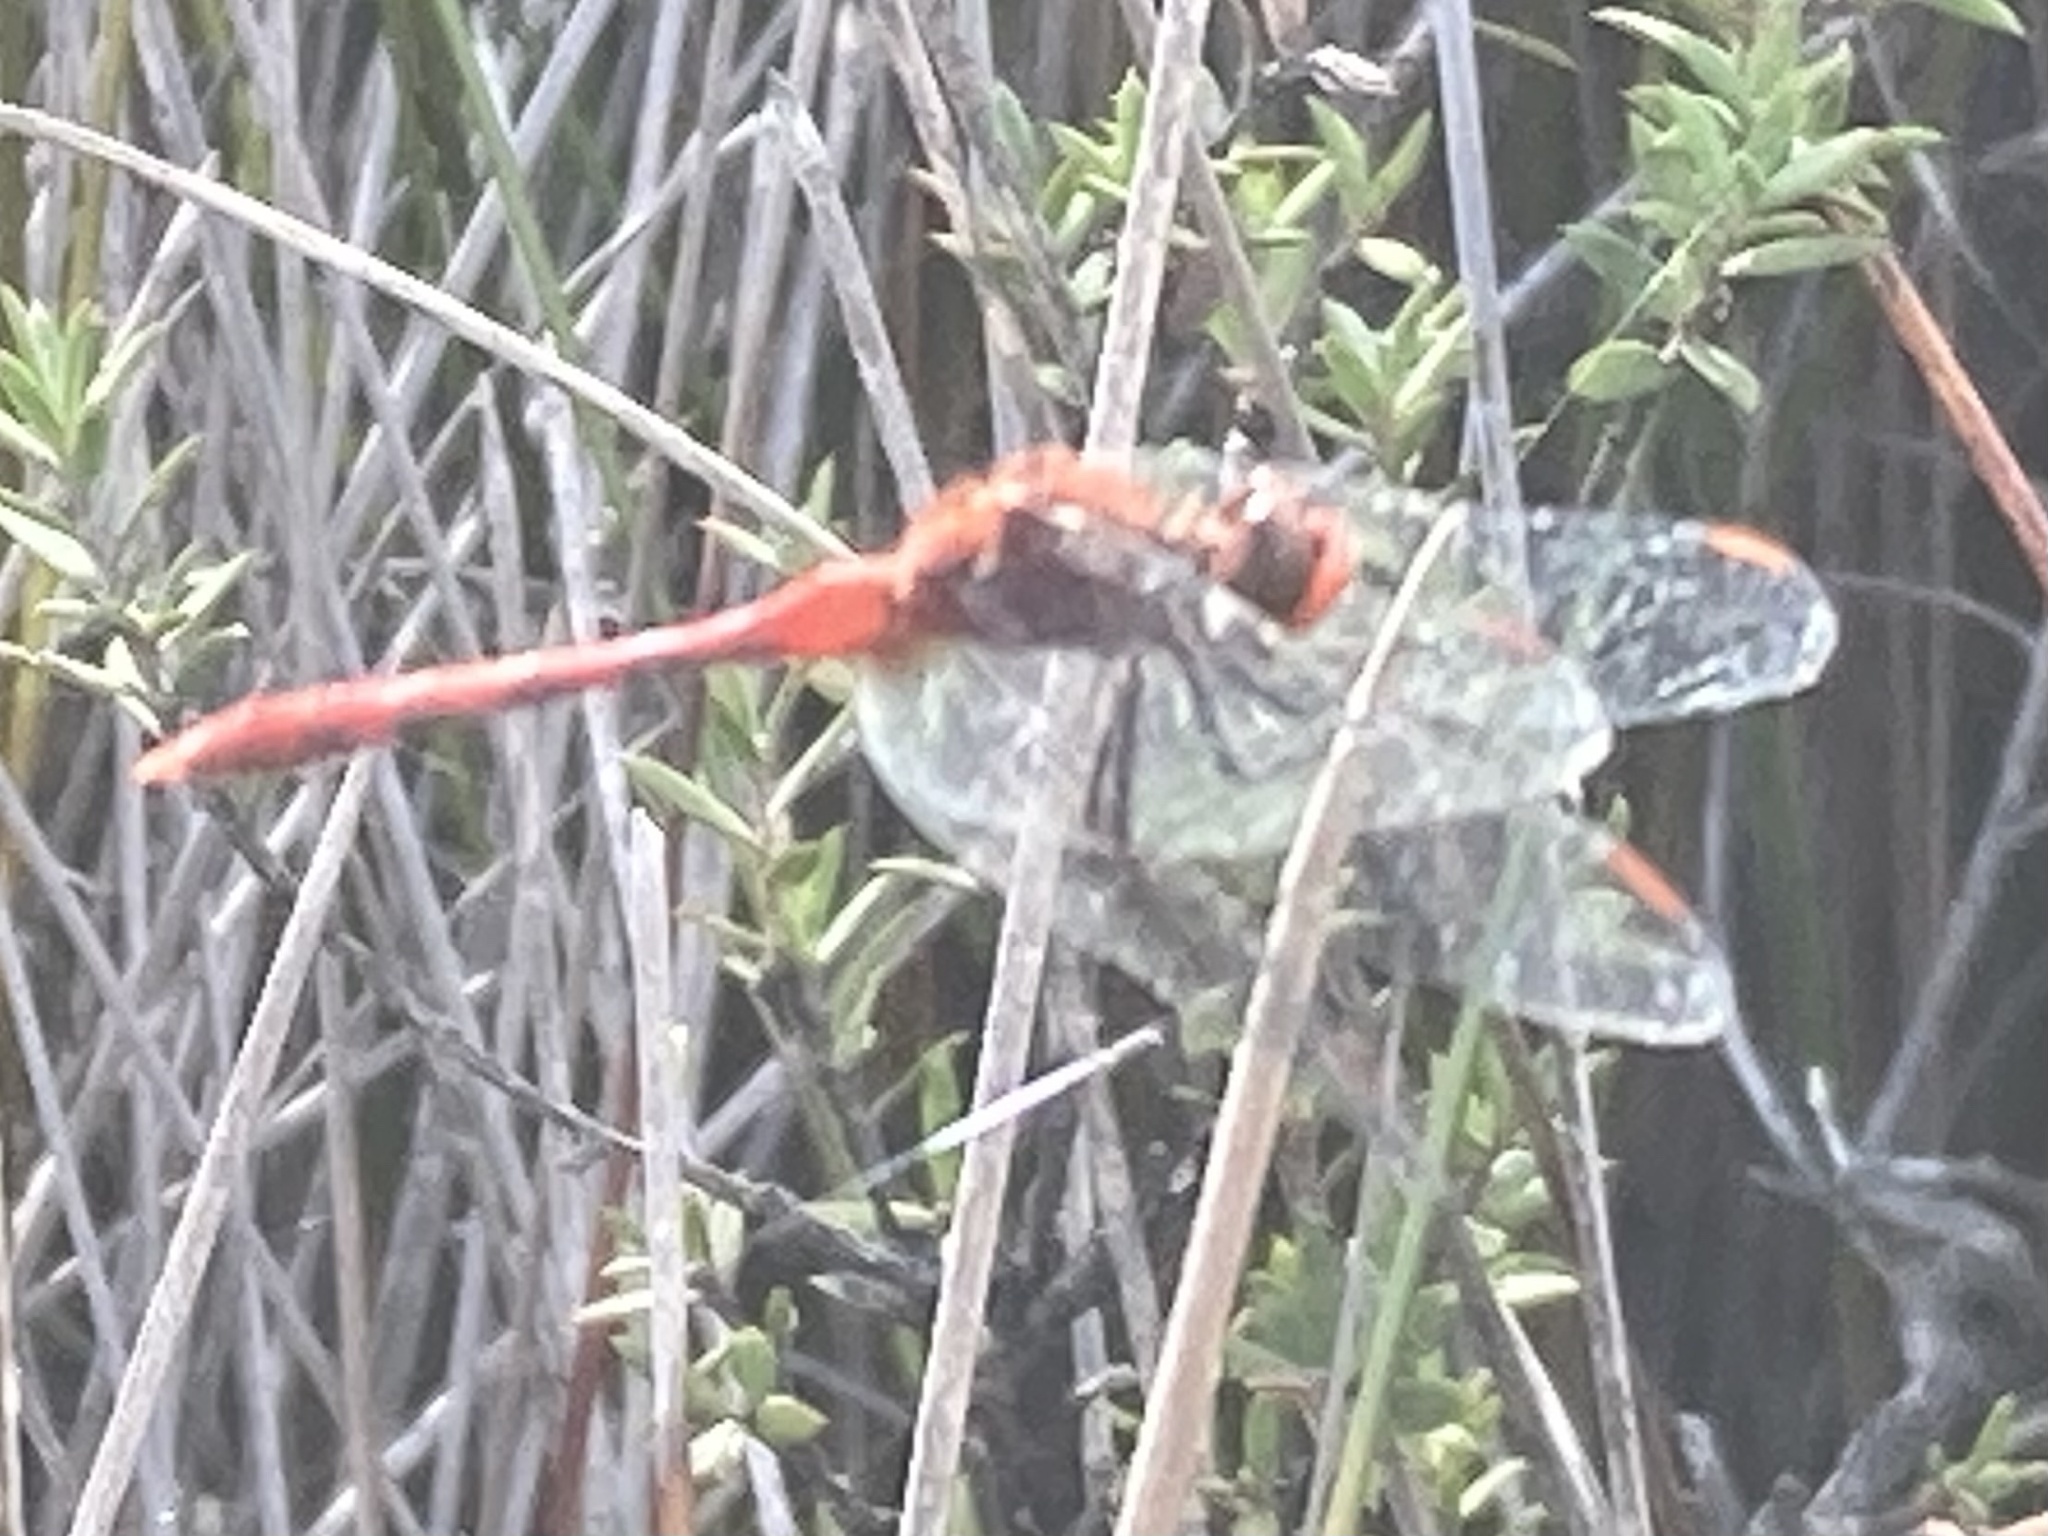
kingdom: Animalia
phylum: Arthropoda
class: Insecta
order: Odonata
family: Libellulidae
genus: Diplacodes
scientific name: Diplacodes bipunctata
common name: Red percher dragonfly
